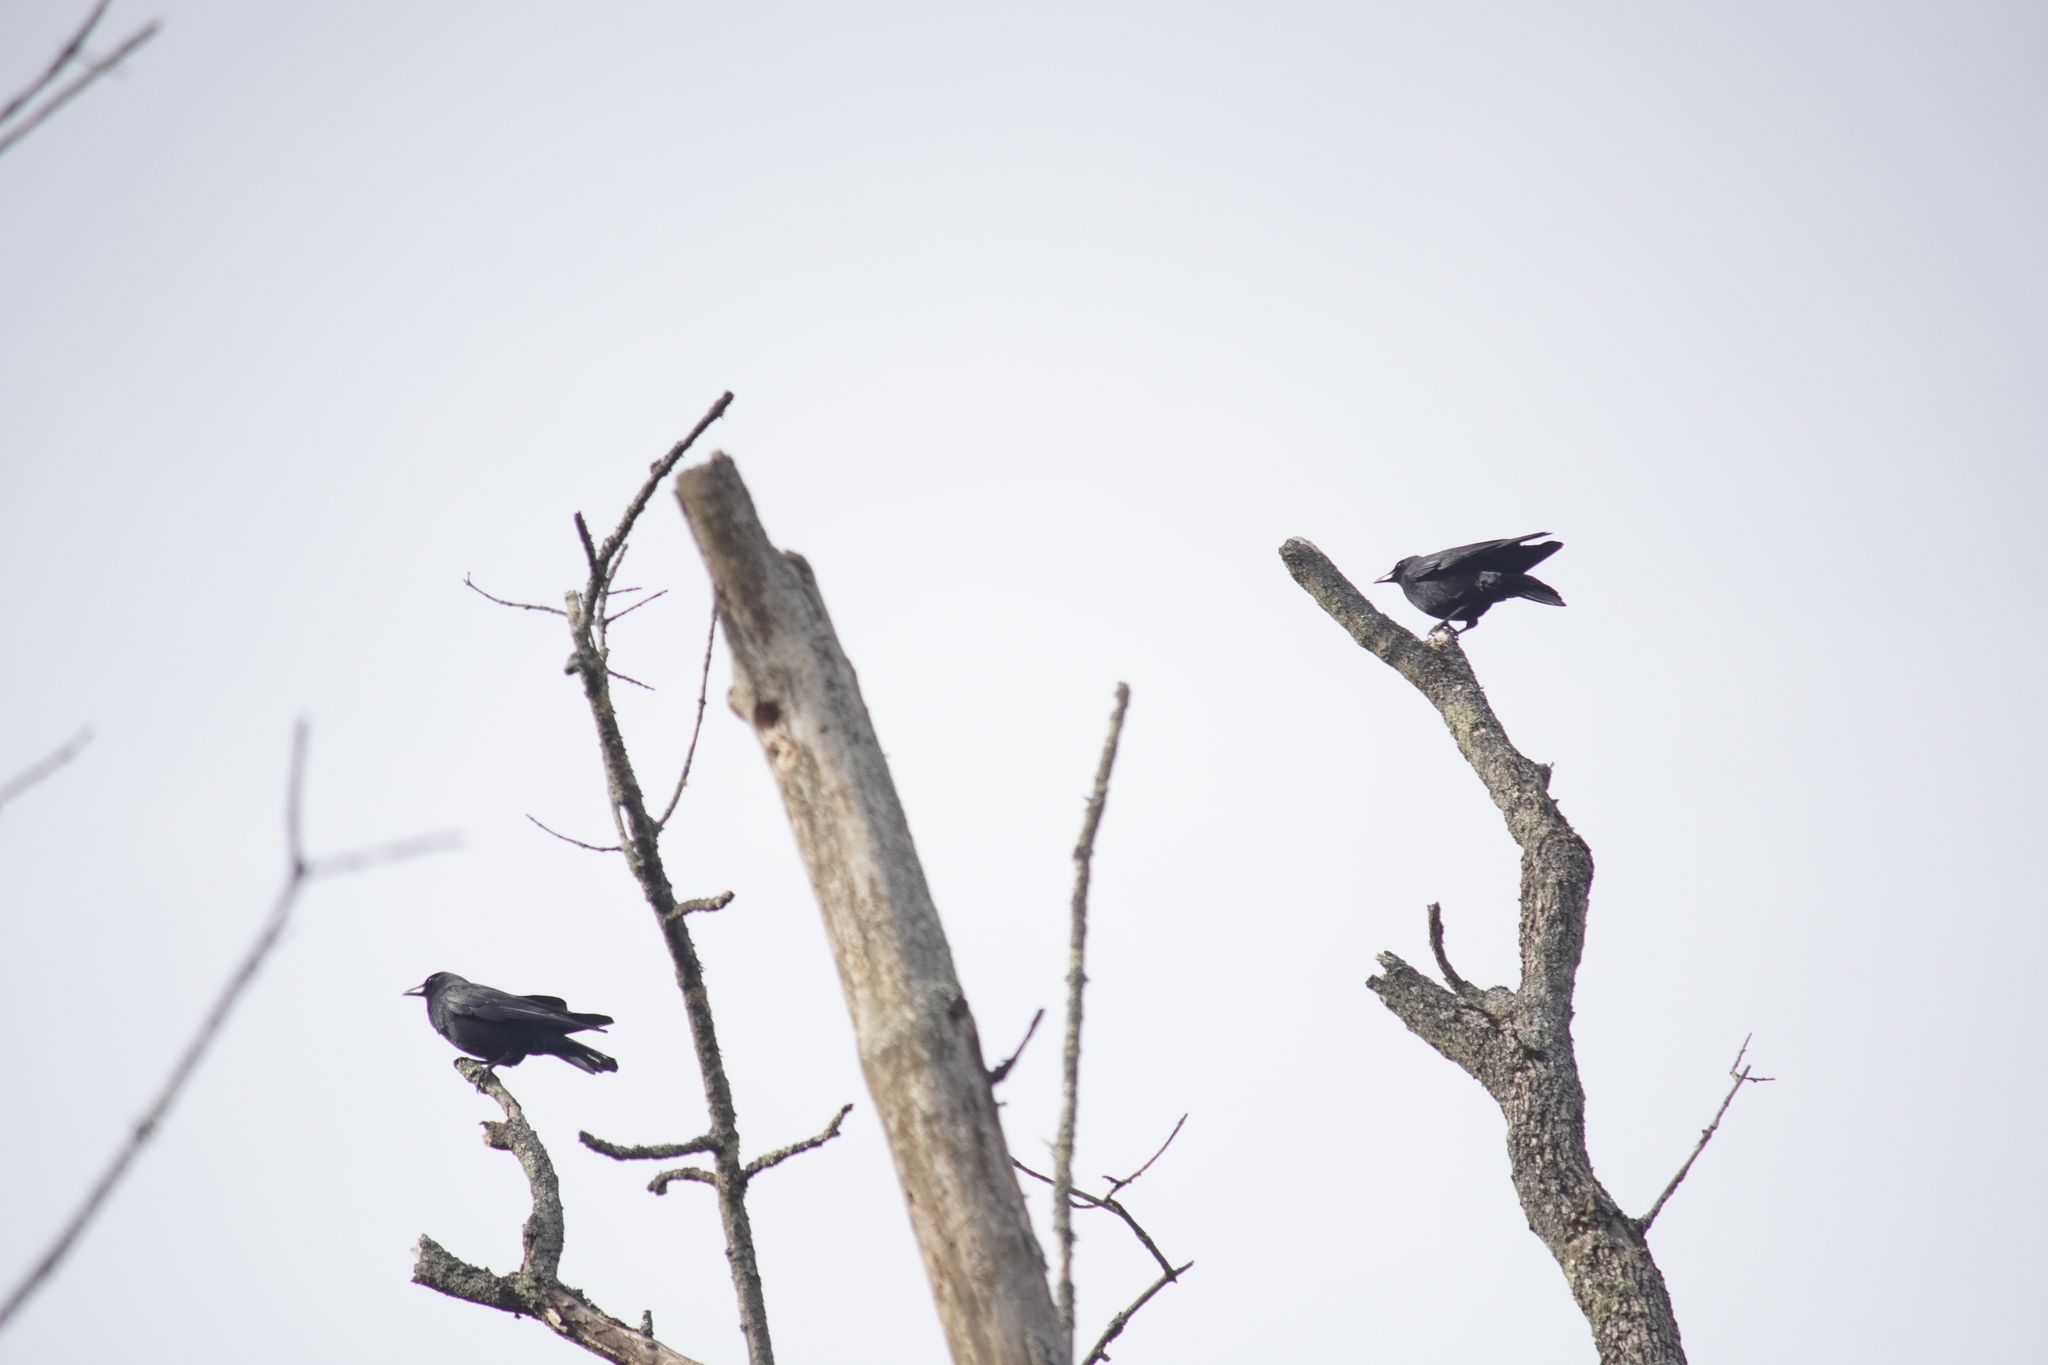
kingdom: Animalia
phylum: Chordata
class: Aves
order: Passeriformes
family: Corvidae
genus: Corvus
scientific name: Corvus brachyrhynchos
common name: American crow
